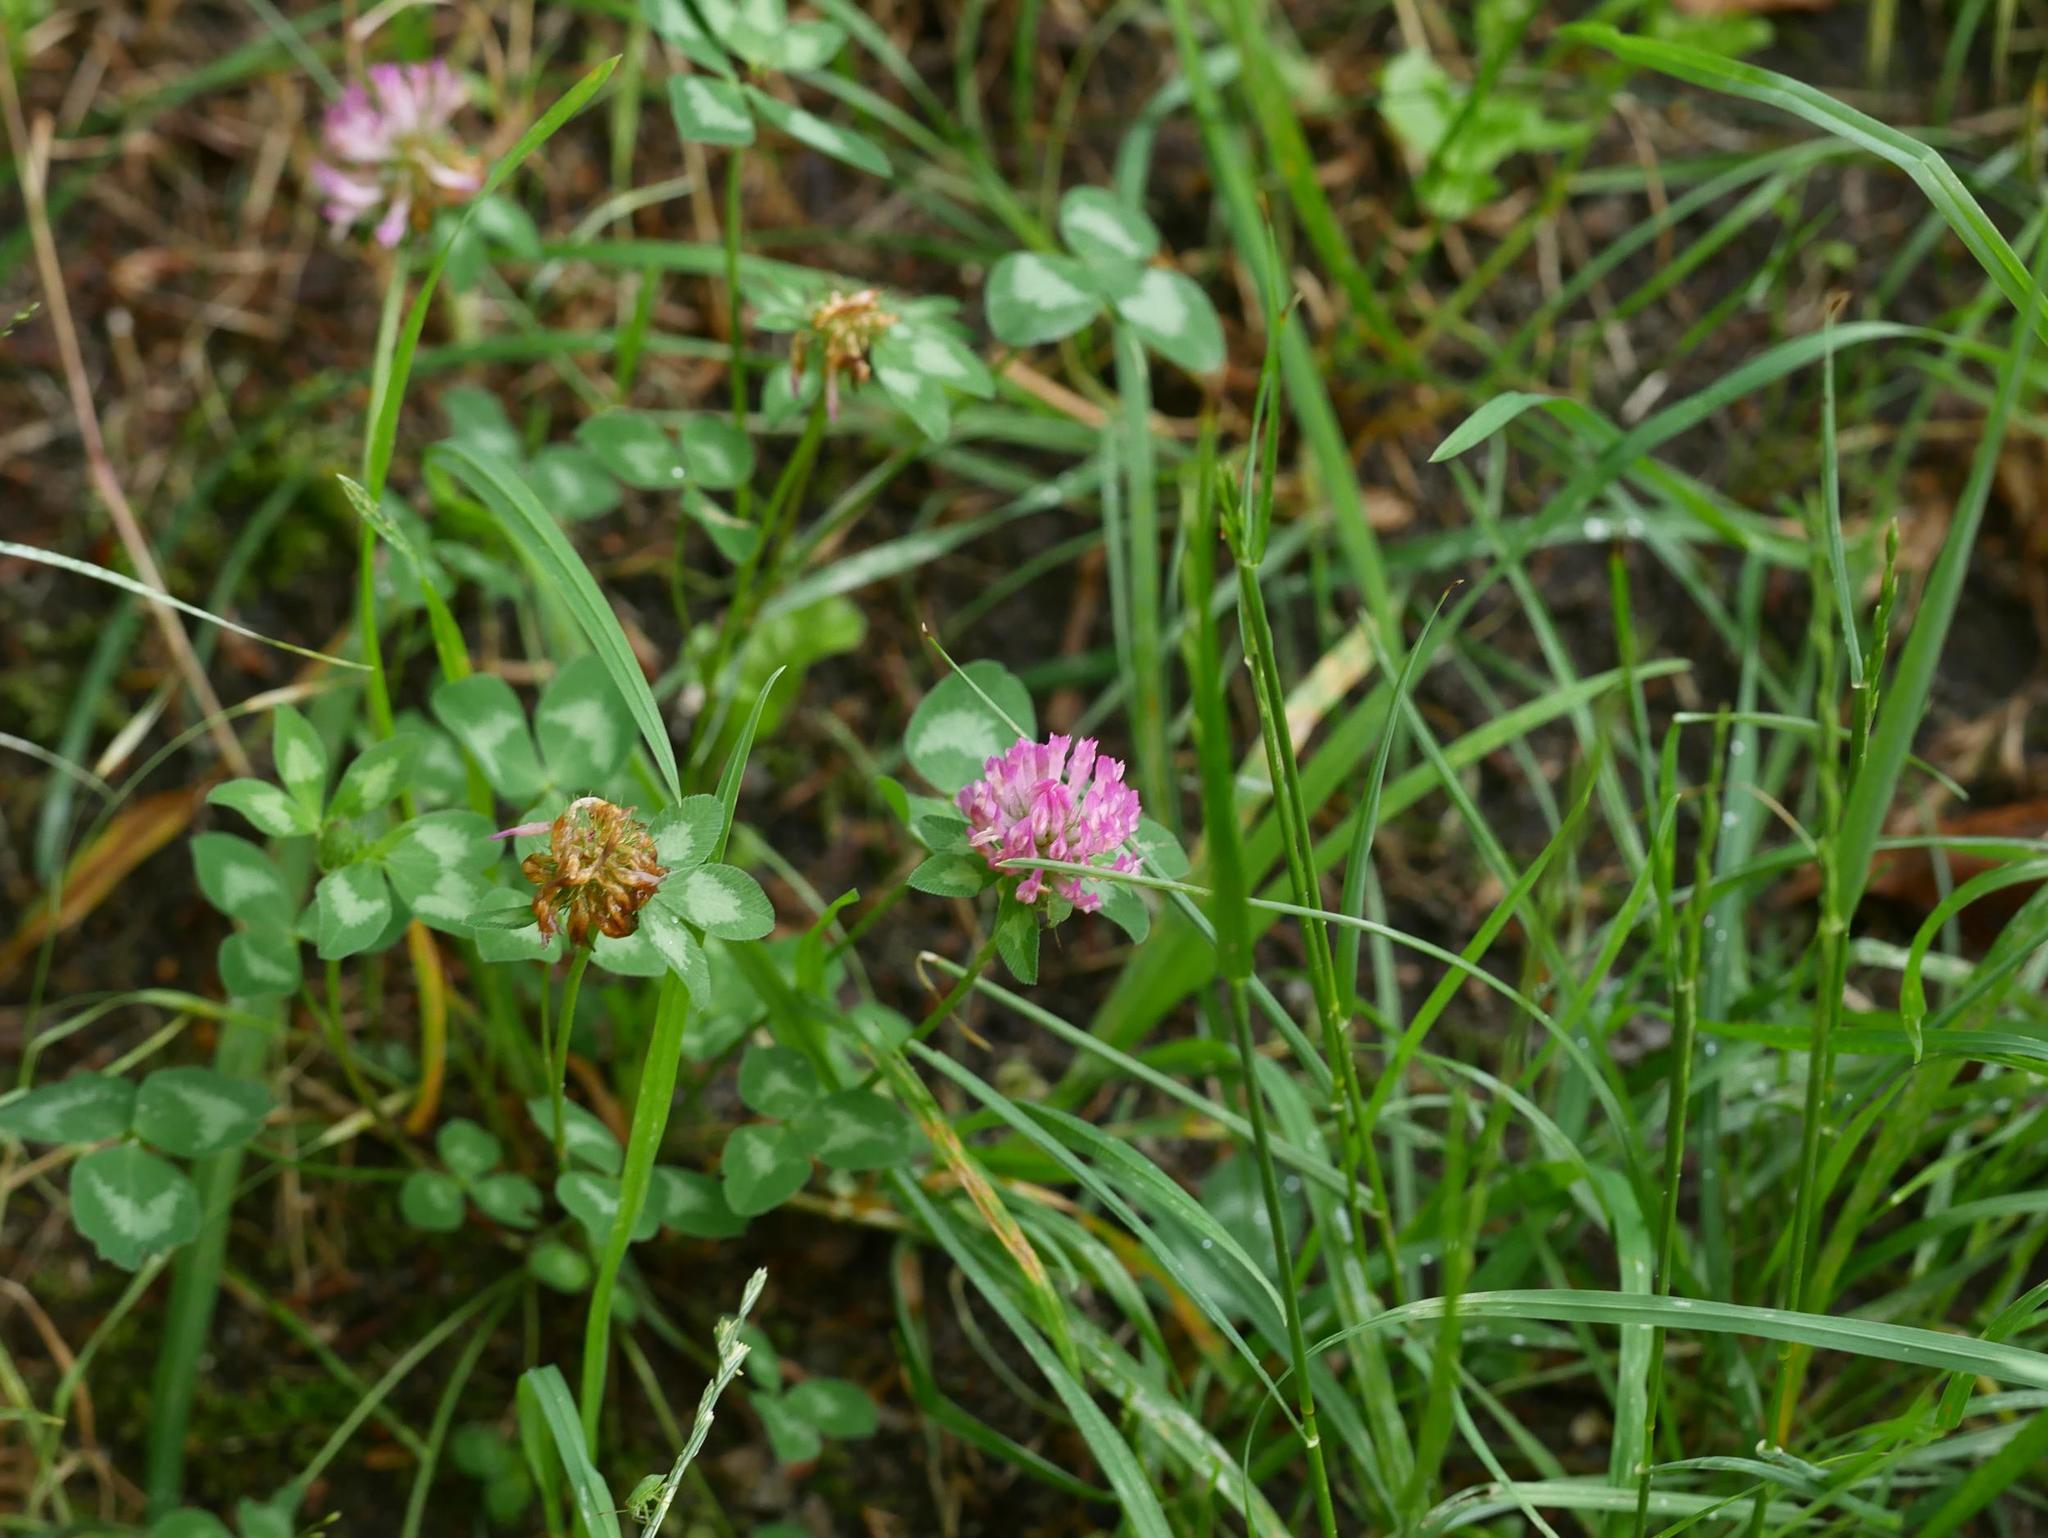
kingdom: Plantae
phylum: Tracheophyta
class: Magnoliopsida
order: Fabales
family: Fabaceae
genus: Trifolium
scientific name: Trifolium pratense
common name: Red clover
